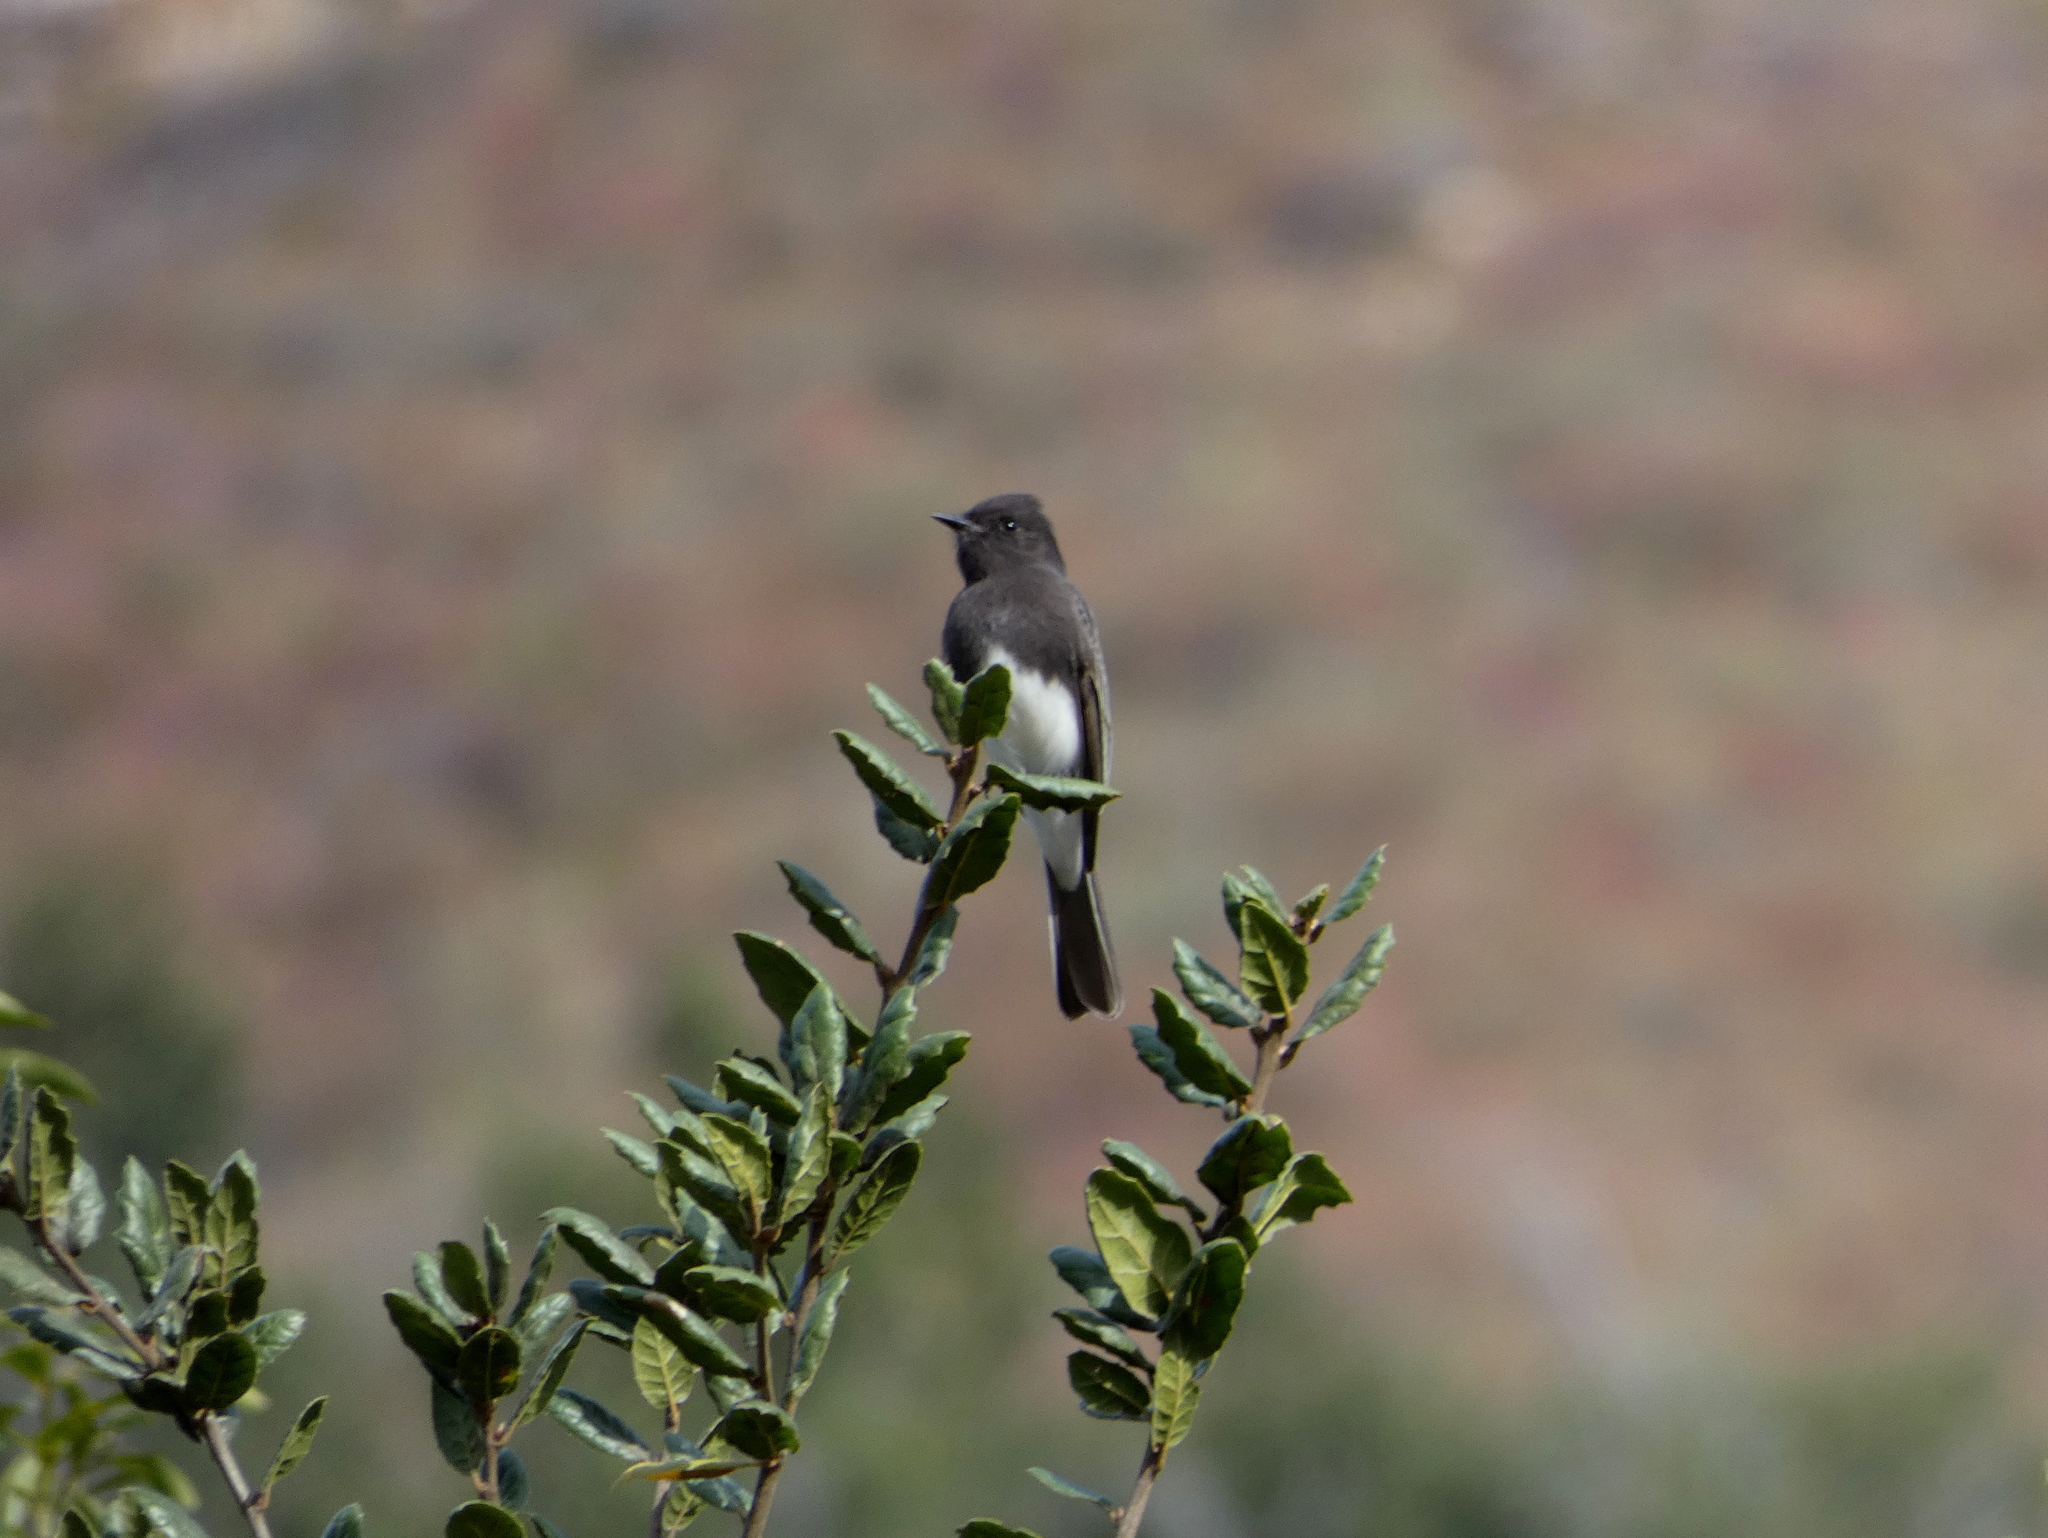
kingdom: Animalia
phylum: Chordata
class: Aves
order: Passeriformes
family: Tyrannidae
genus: Sayornis
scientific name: Sayornis nigricans
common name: Black phoebe
